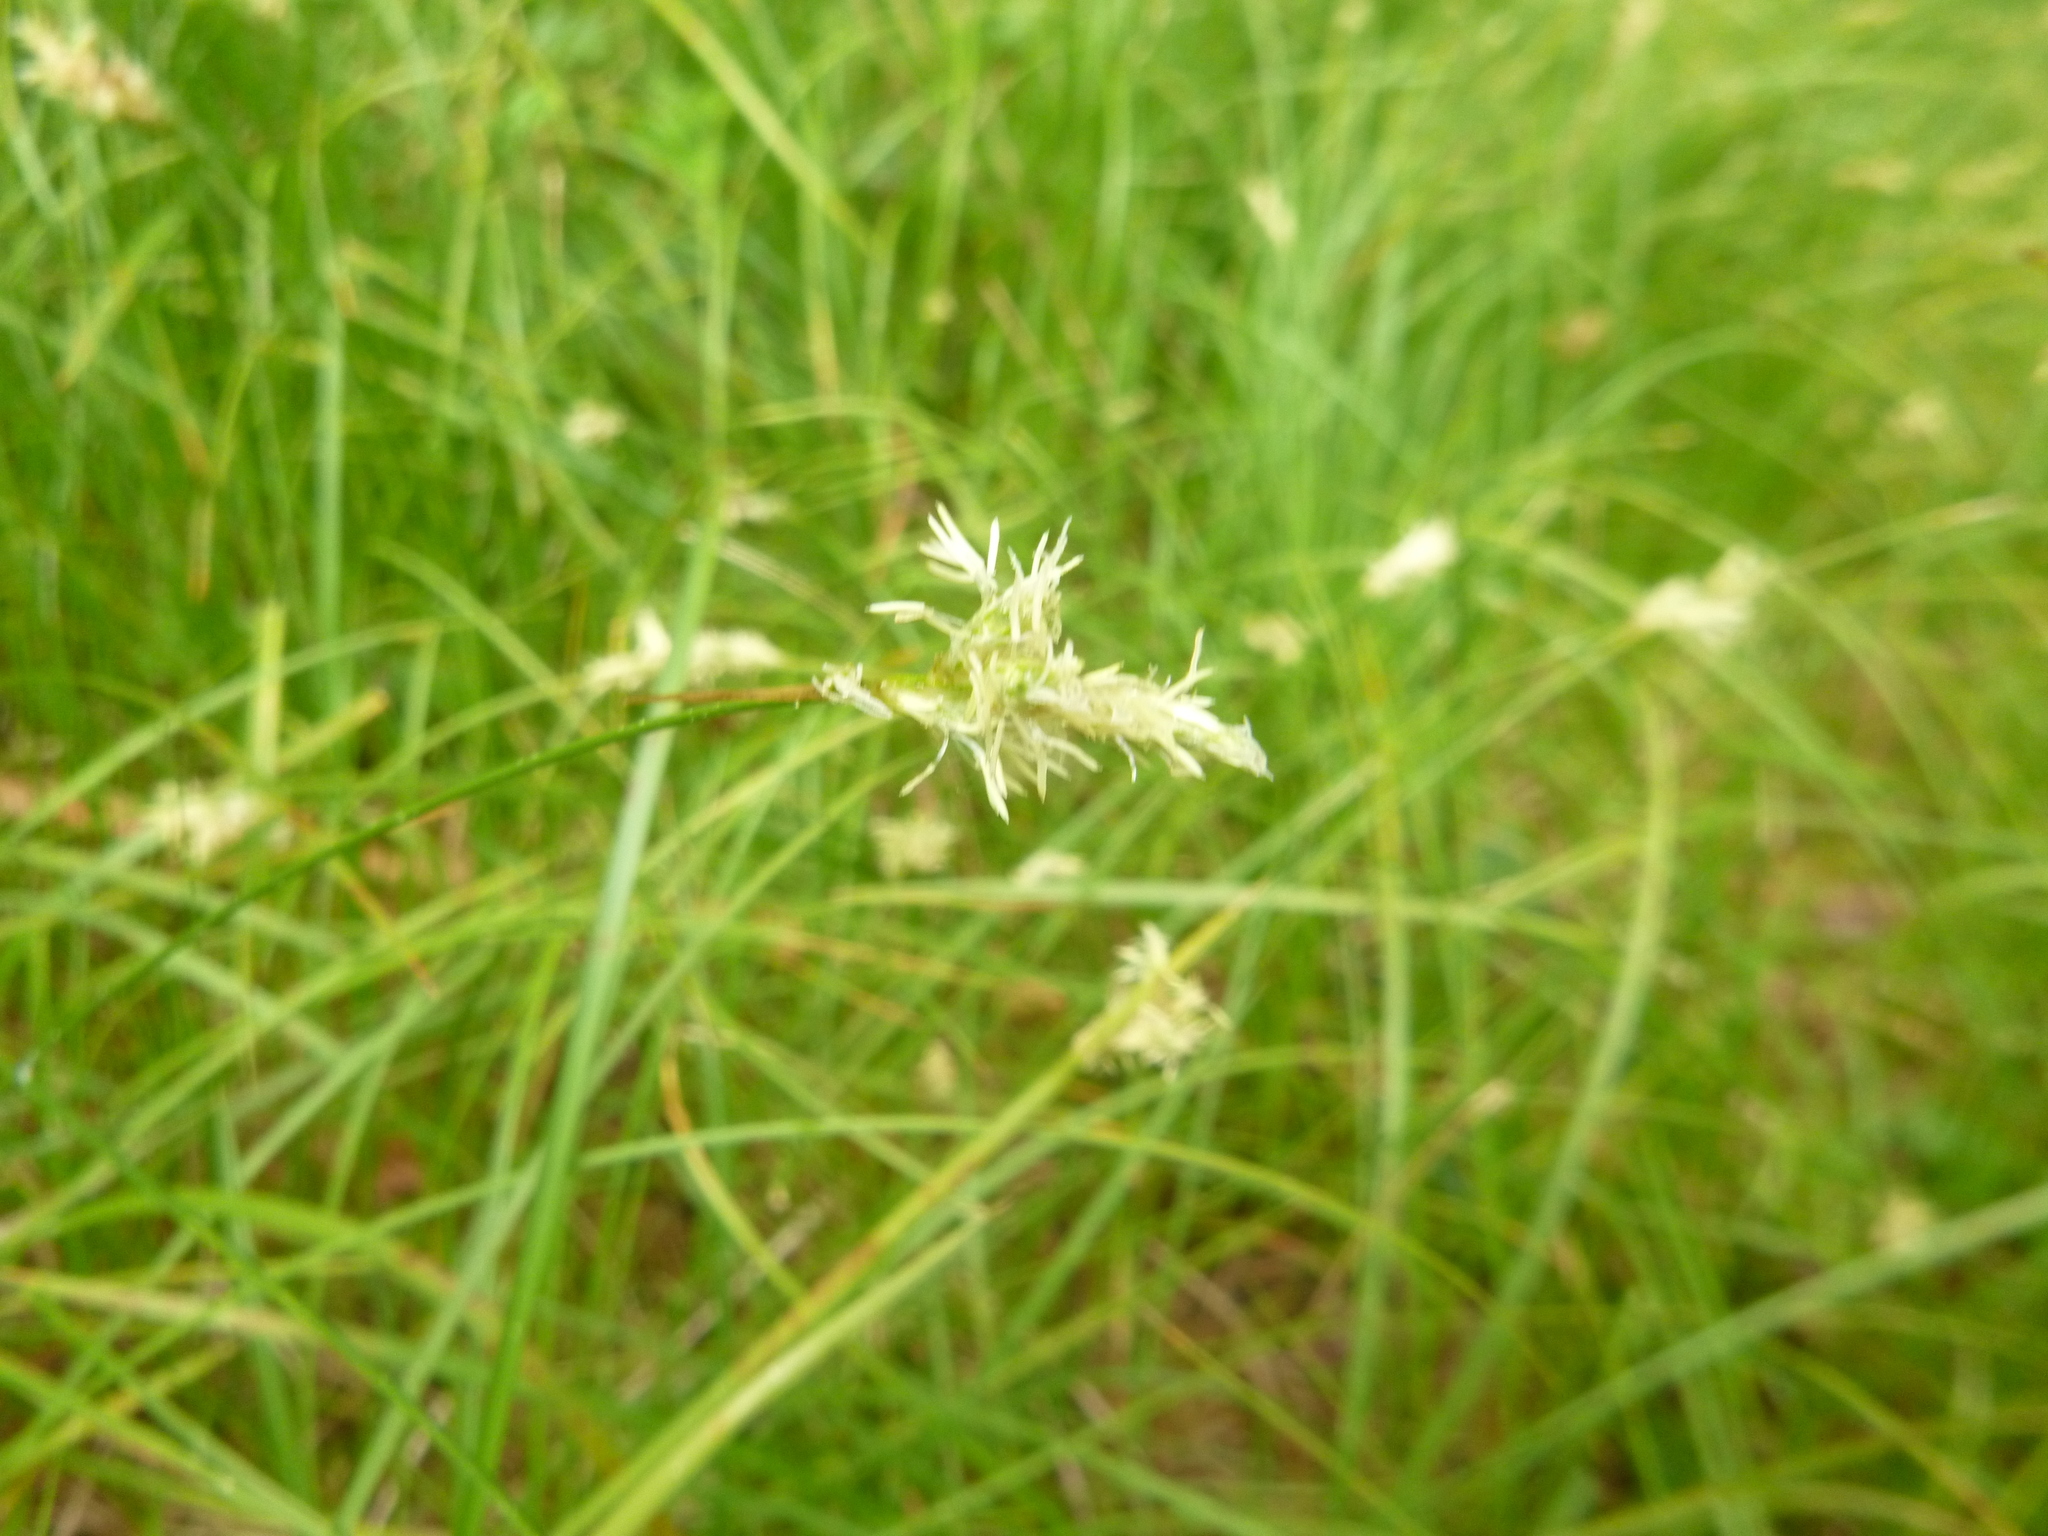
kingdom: Plantae
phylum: Tracheophyta
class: Liliopsida
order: Poales
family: Cyperaceae
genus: Carex
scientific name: Carex brizoides
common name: Quaking-grass sedge
